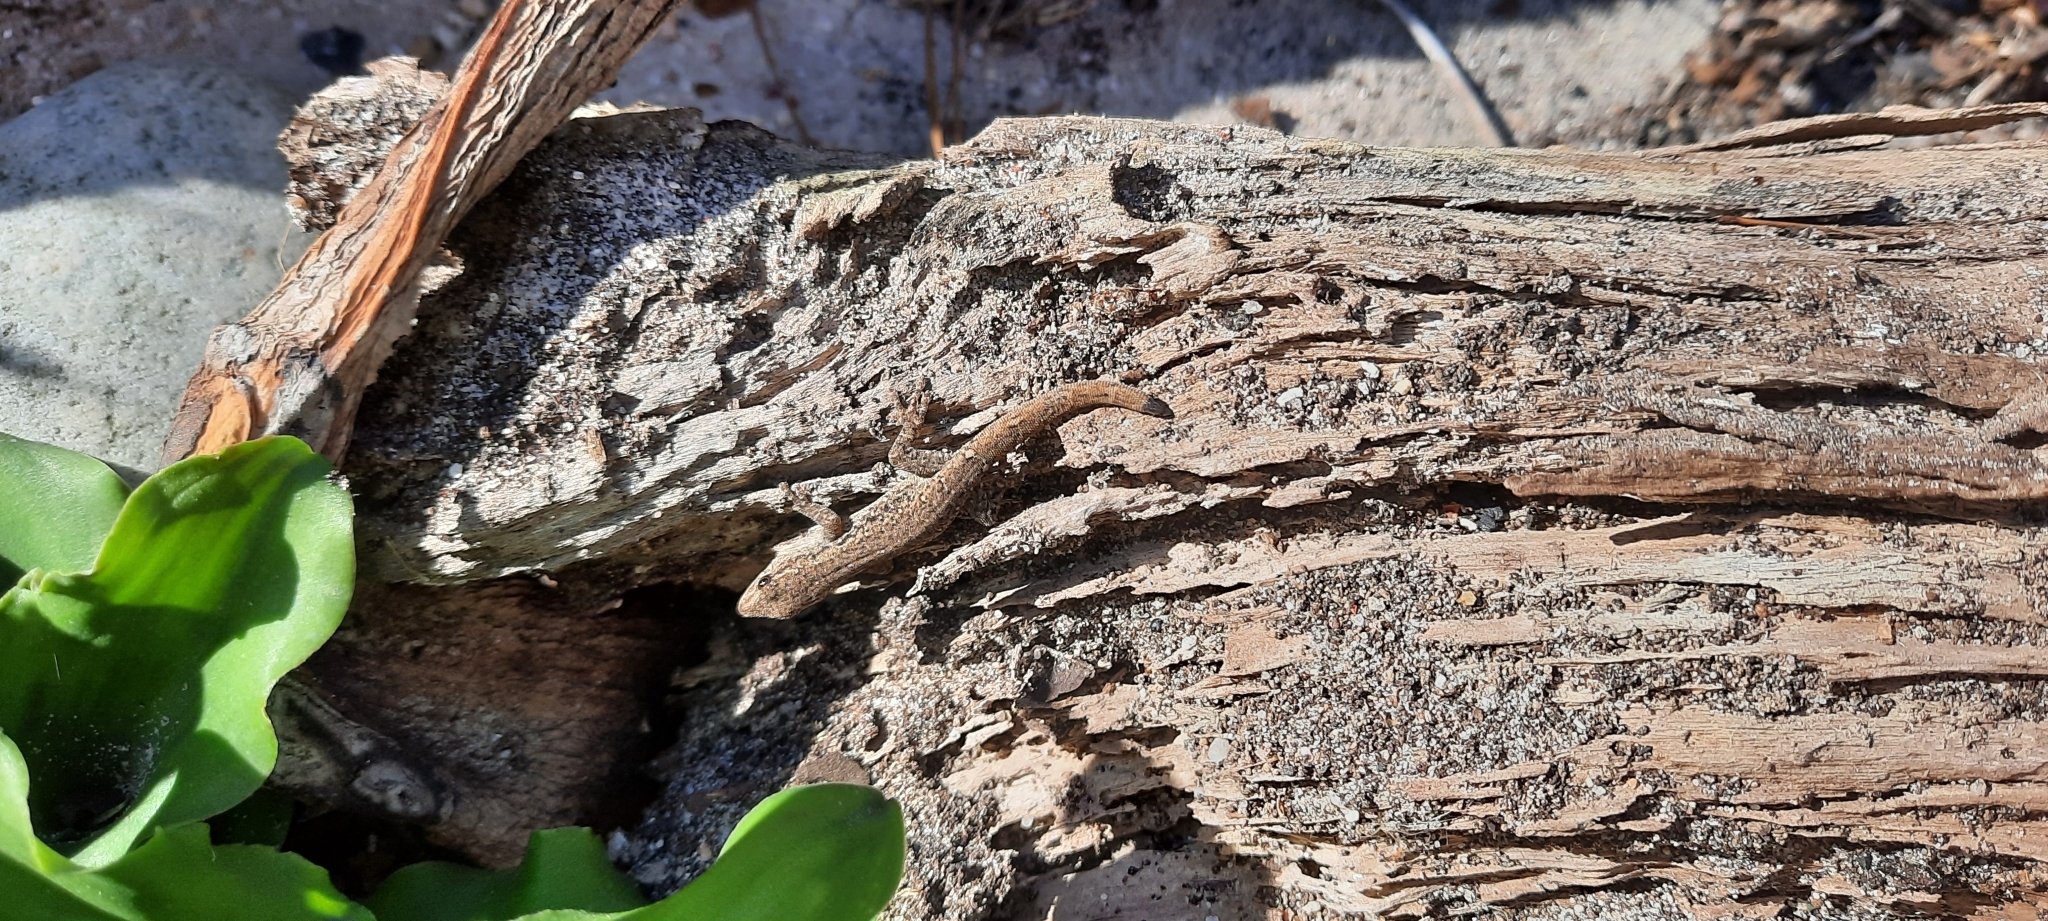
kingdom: Animalia
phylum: Chordata
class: Squamata
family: Gekkonidae
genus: Lygodactylus
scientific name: Lygodactylus capensis
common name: Cape dwarf gecko
